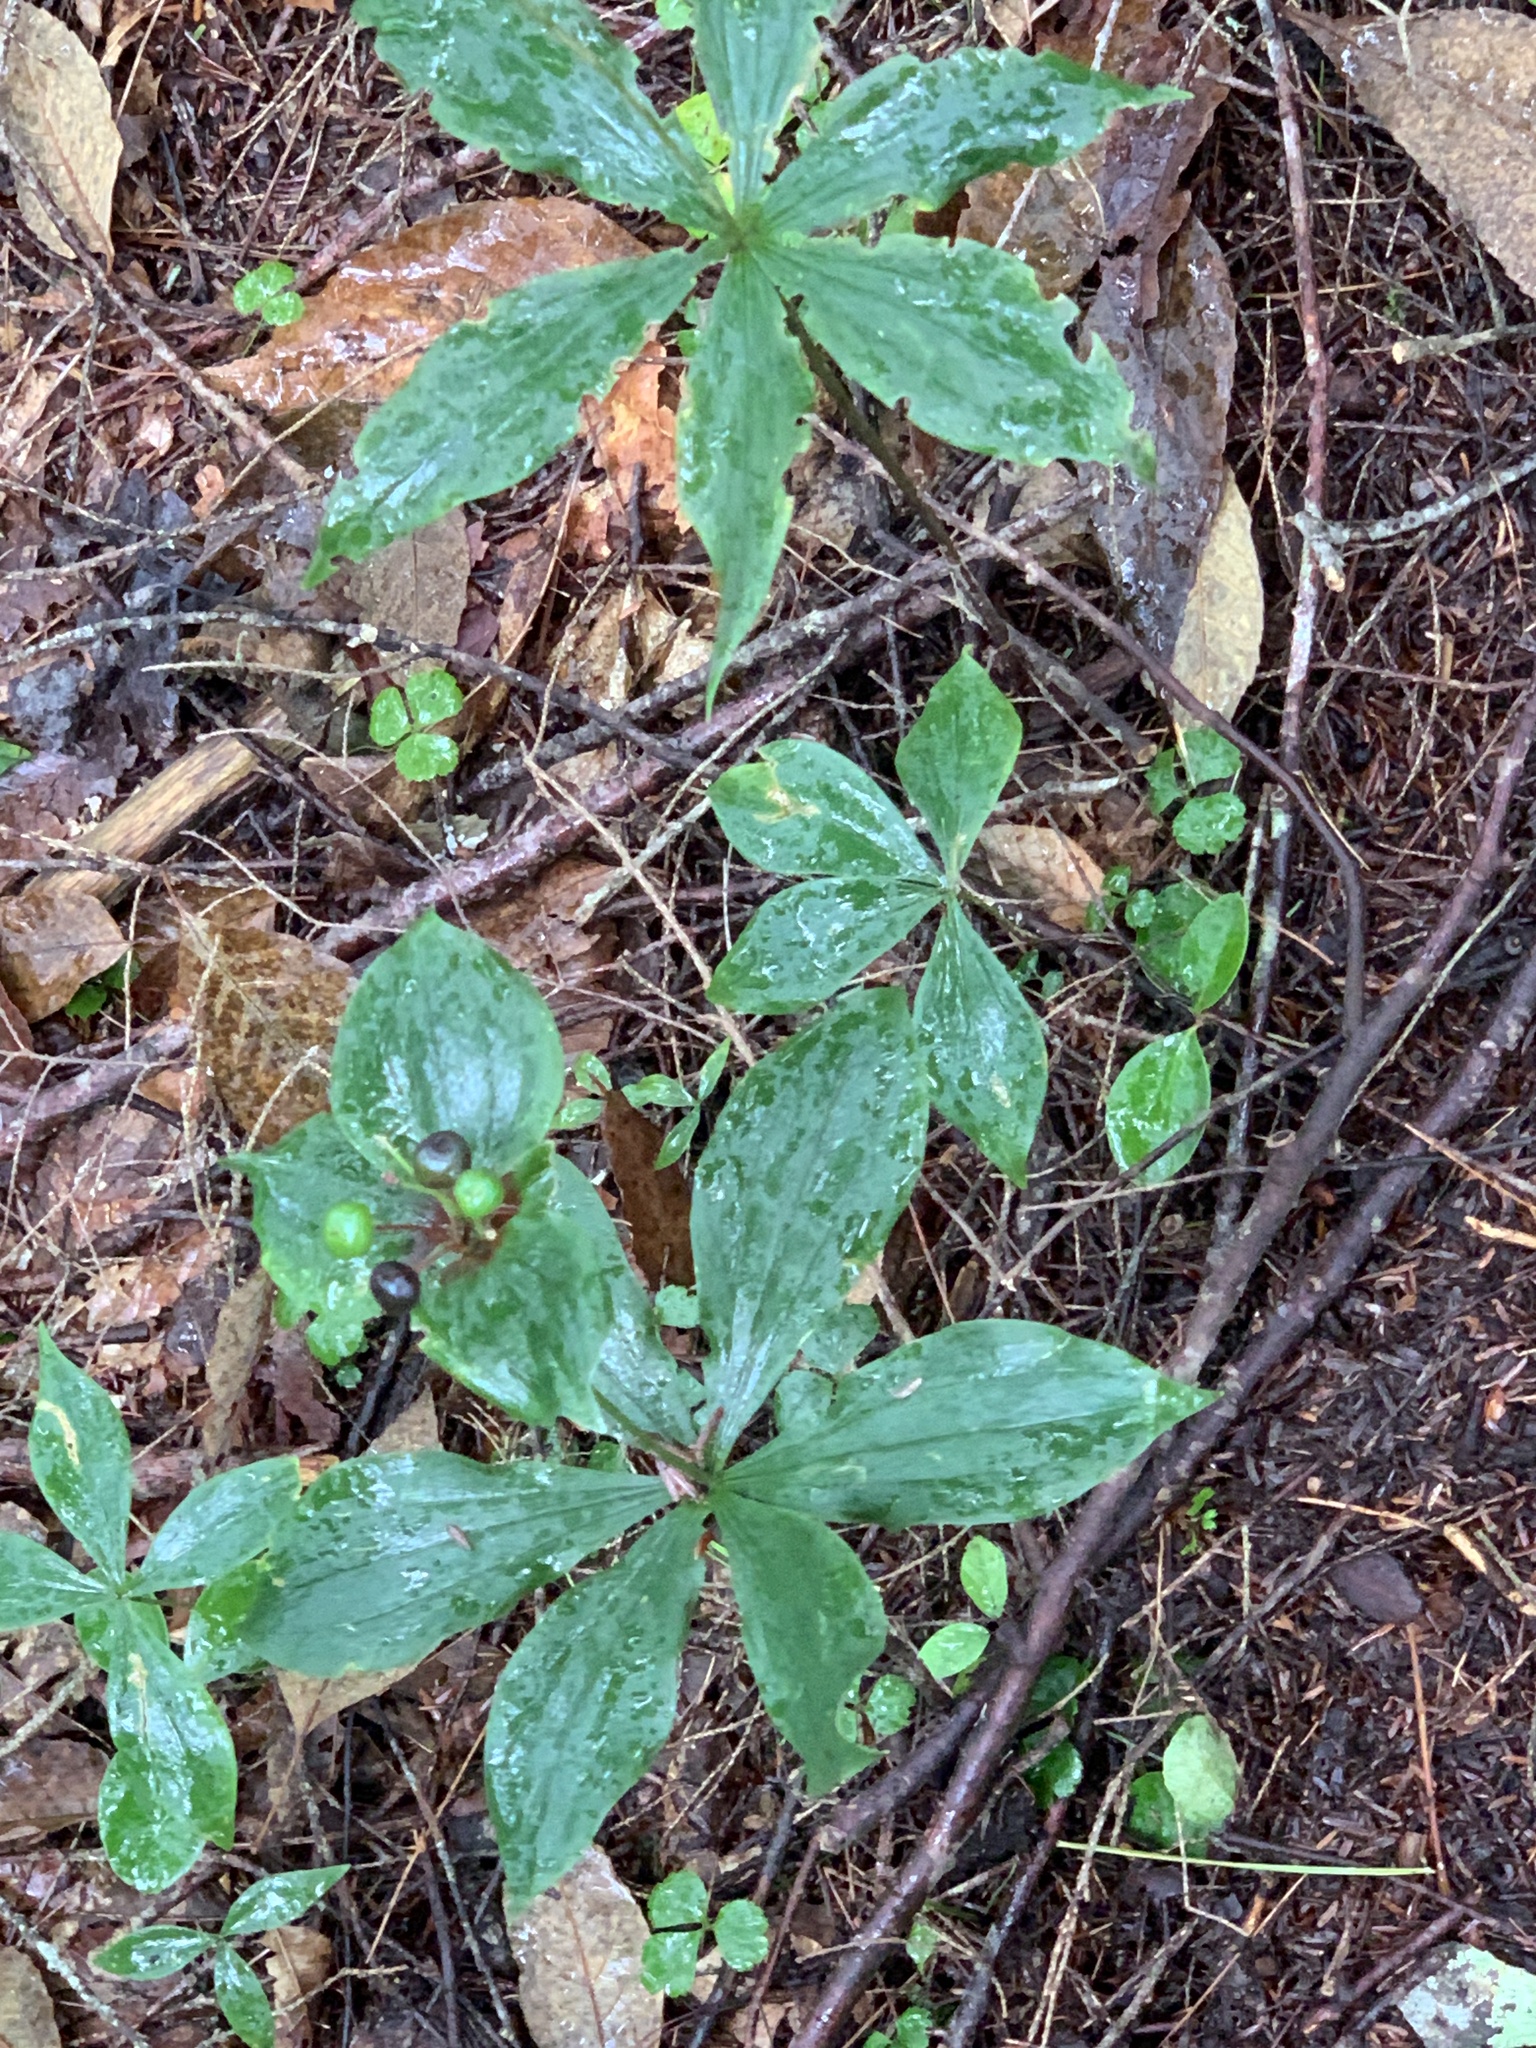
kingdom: Plantae
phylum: Tracheophyta
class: Liliopsida
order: Liliales
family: Liliaceae
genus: Medeola
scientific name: Medeola virginiana
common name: Indian cucumber-root
